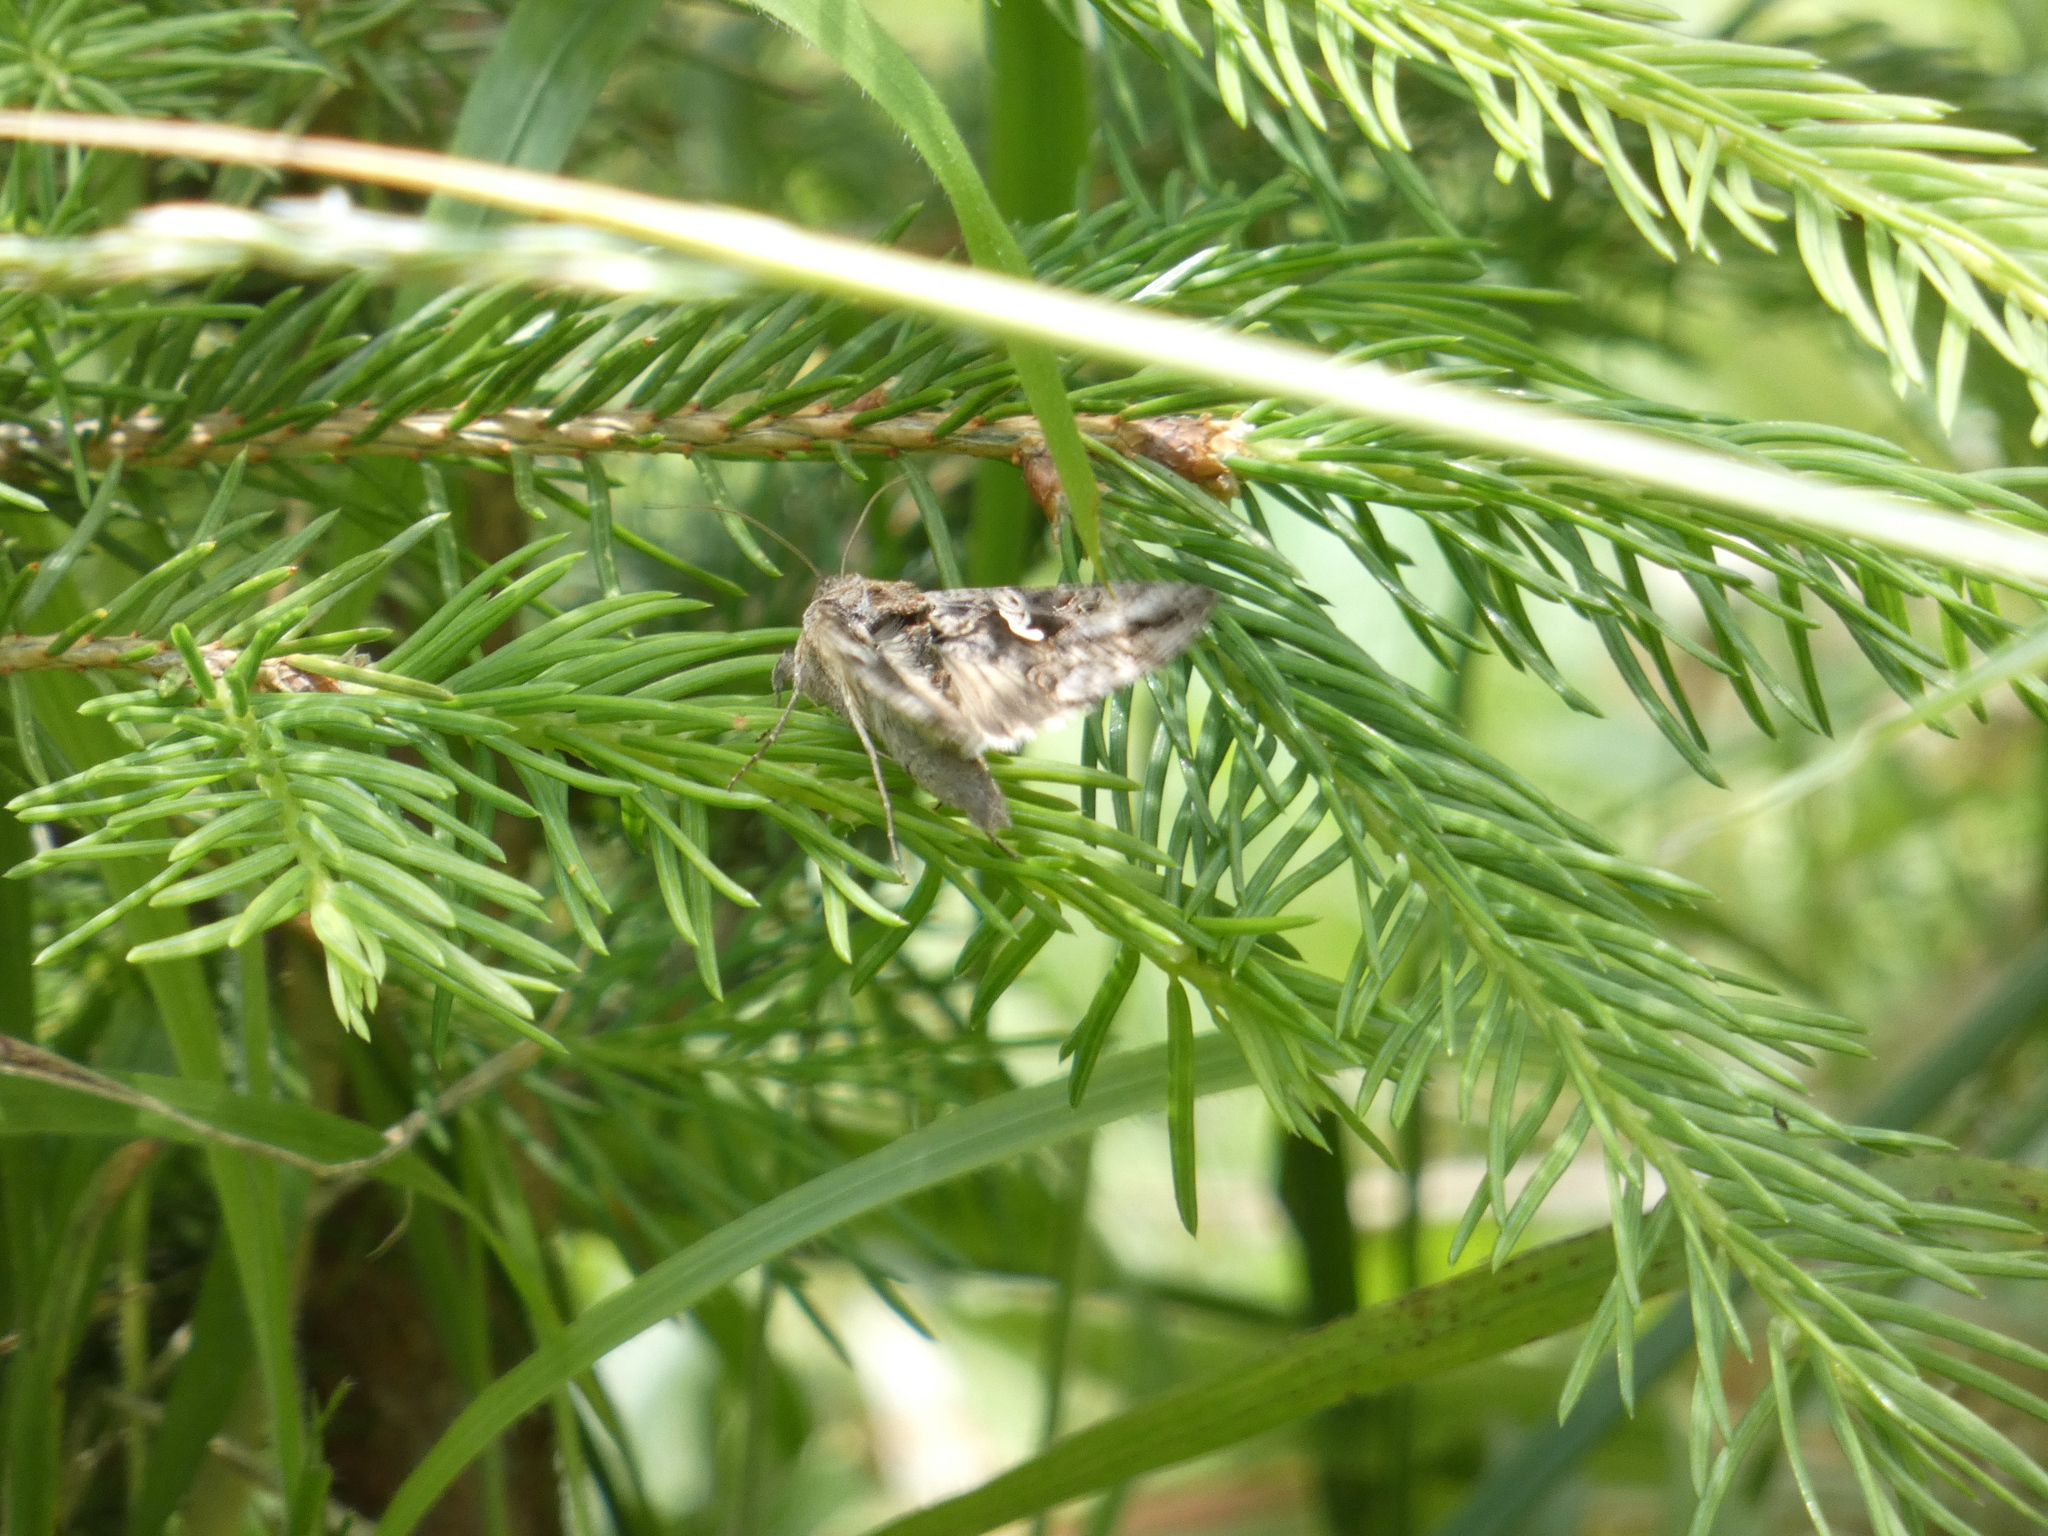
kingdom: Animalia
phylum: Arthropoda
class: Insecta
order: Lepidoptera
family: Noctuidae
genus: Autographa
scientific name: Autographa gamma
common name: Silver y
